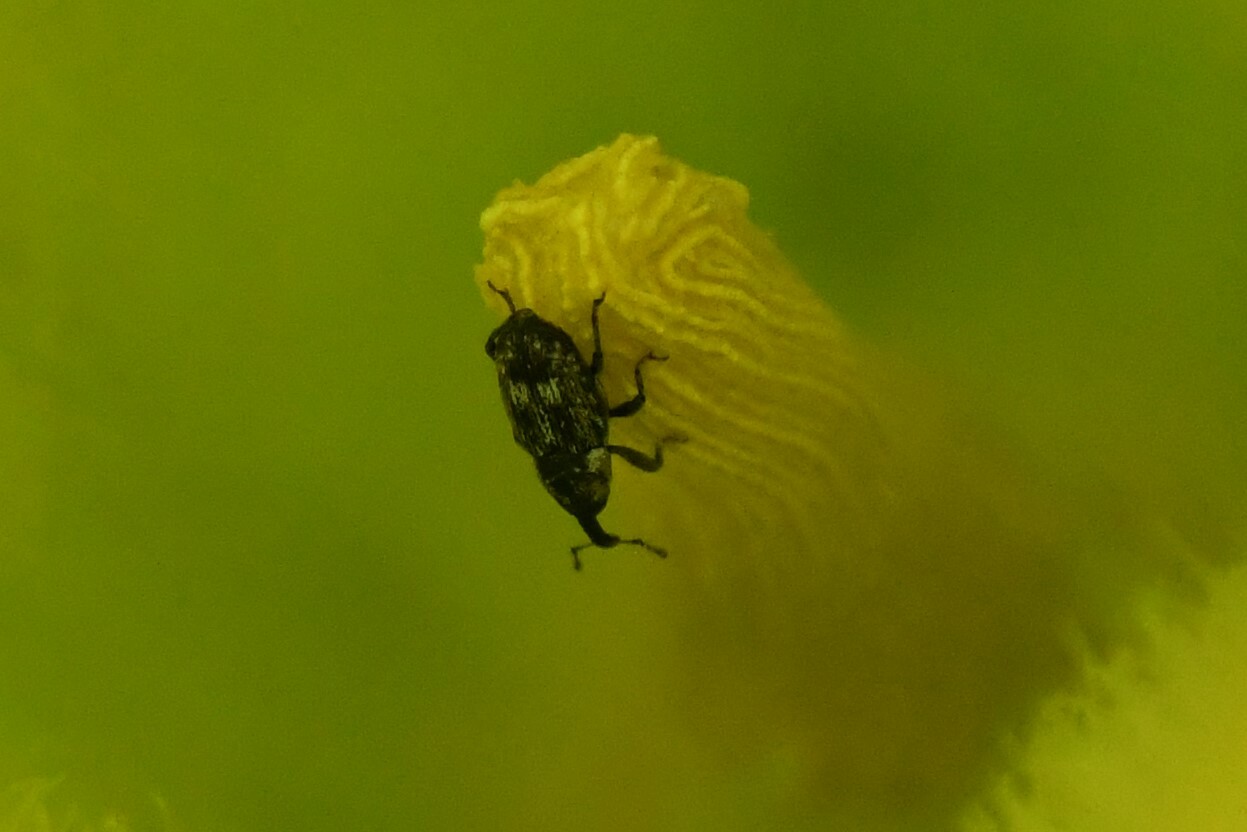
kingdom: Animalia
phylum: Arthropoda
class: Insecta
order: Coleoptera
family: Curculionidae
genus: Cosmobaris
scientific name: Cosmobaris scolopacea
